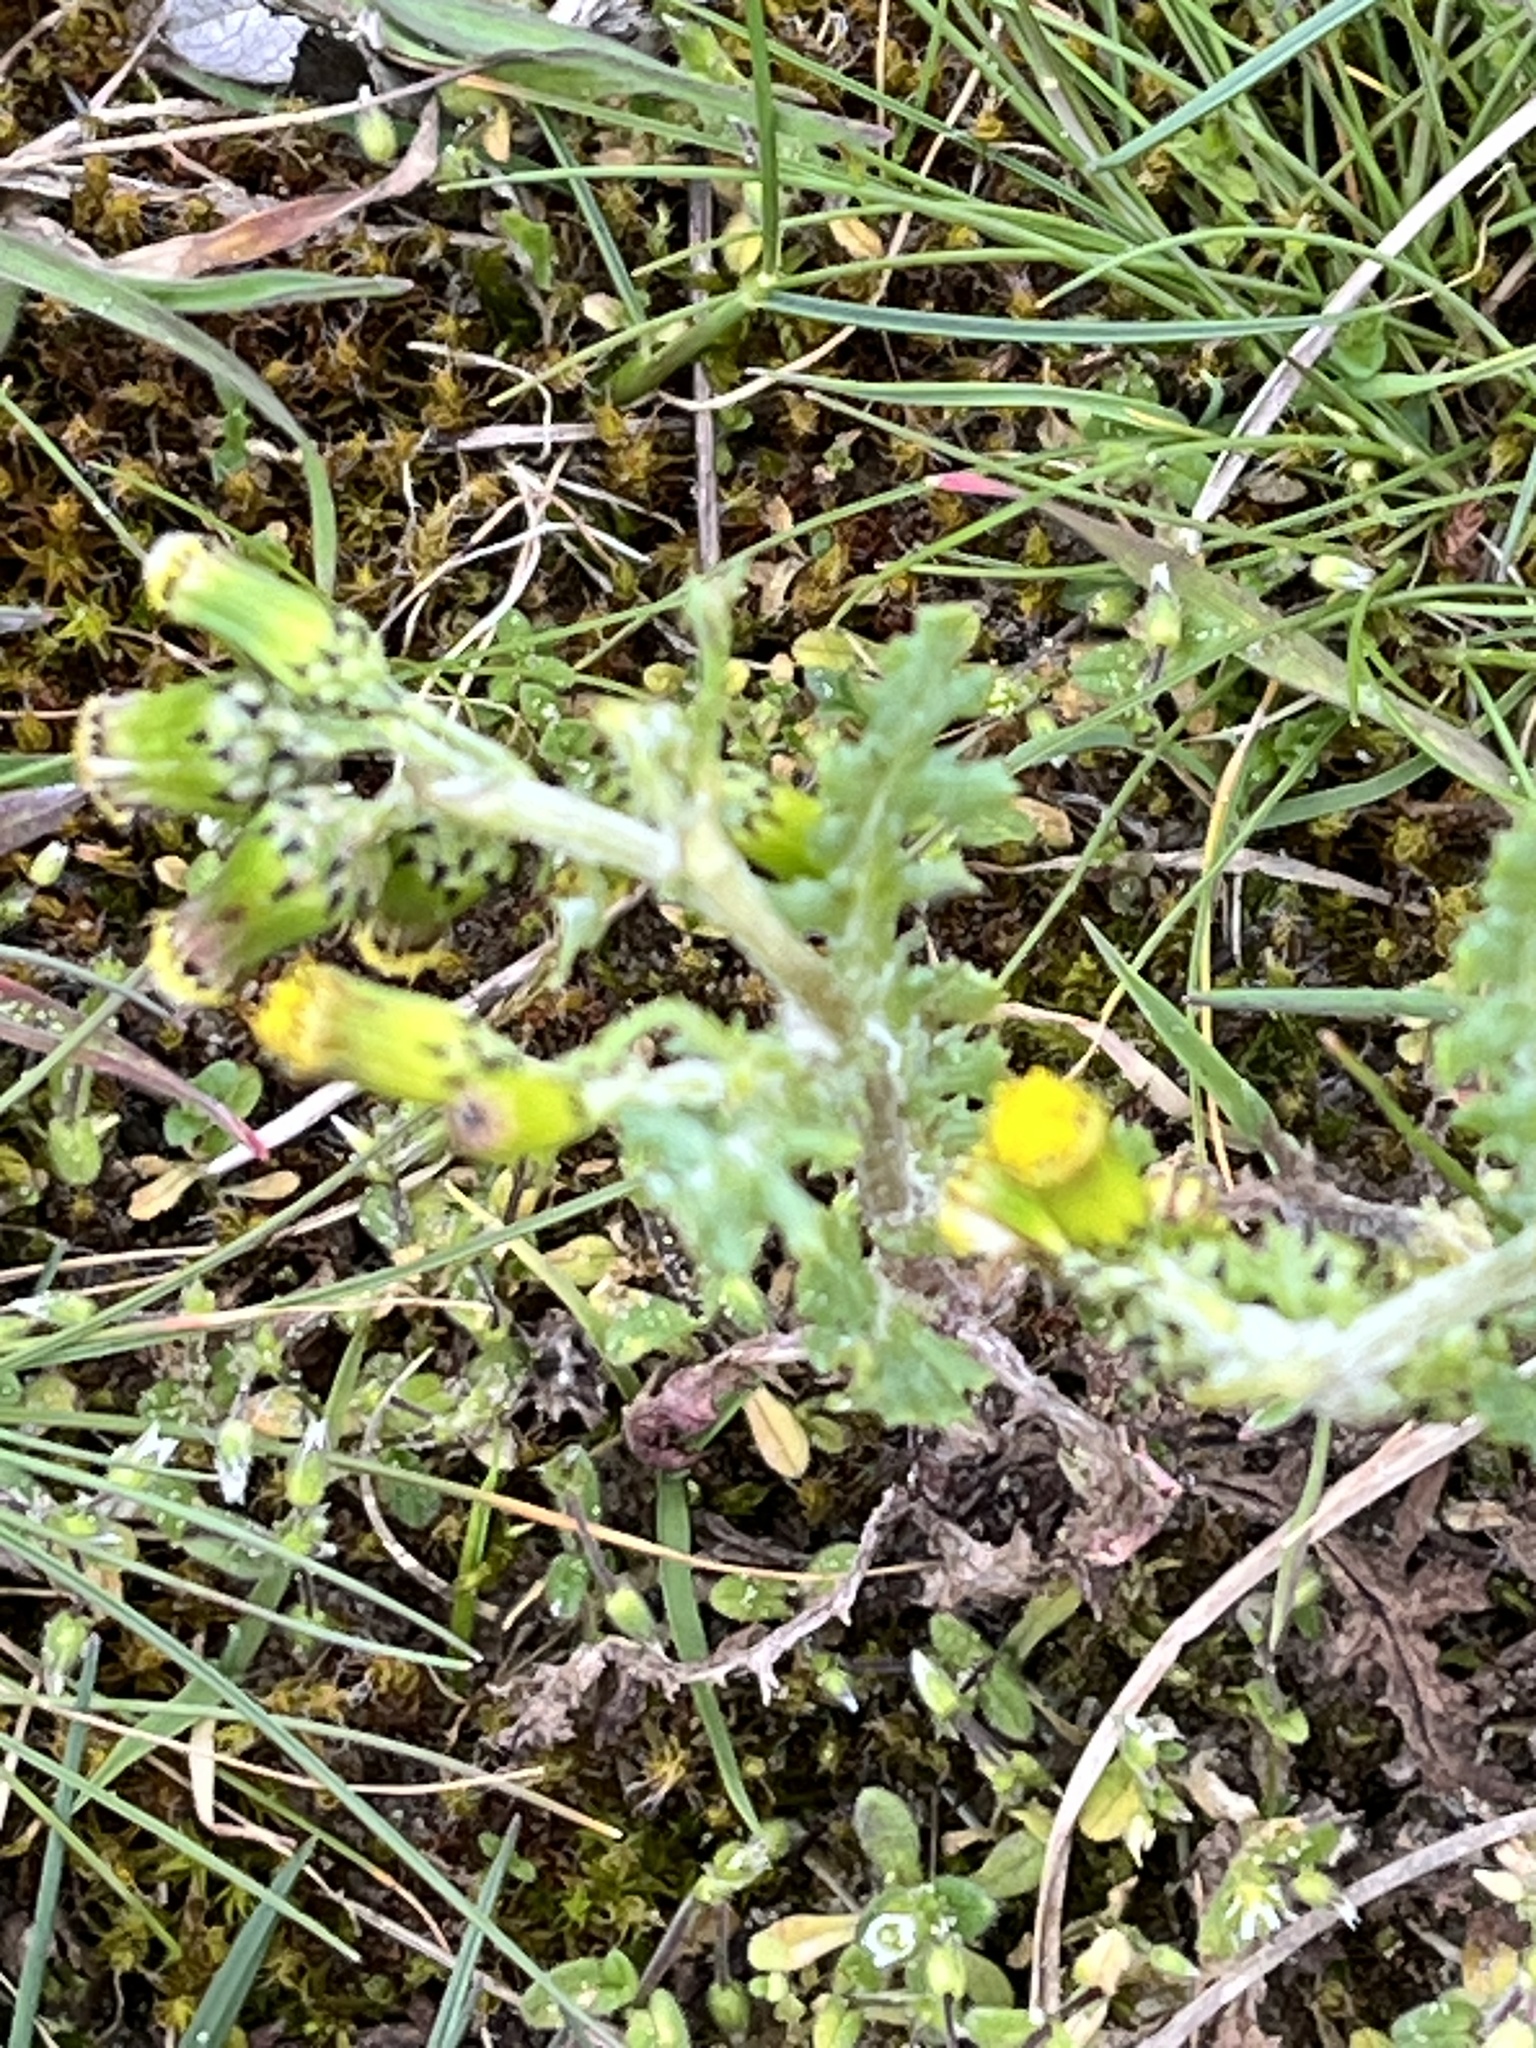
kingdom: Plantae
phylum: Tracheophyta
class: Magnoliopsida
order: Asterales
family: Asteraceae
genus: Senecio
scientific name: Senecio vulgaris
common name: Old-man-in-the-spring
